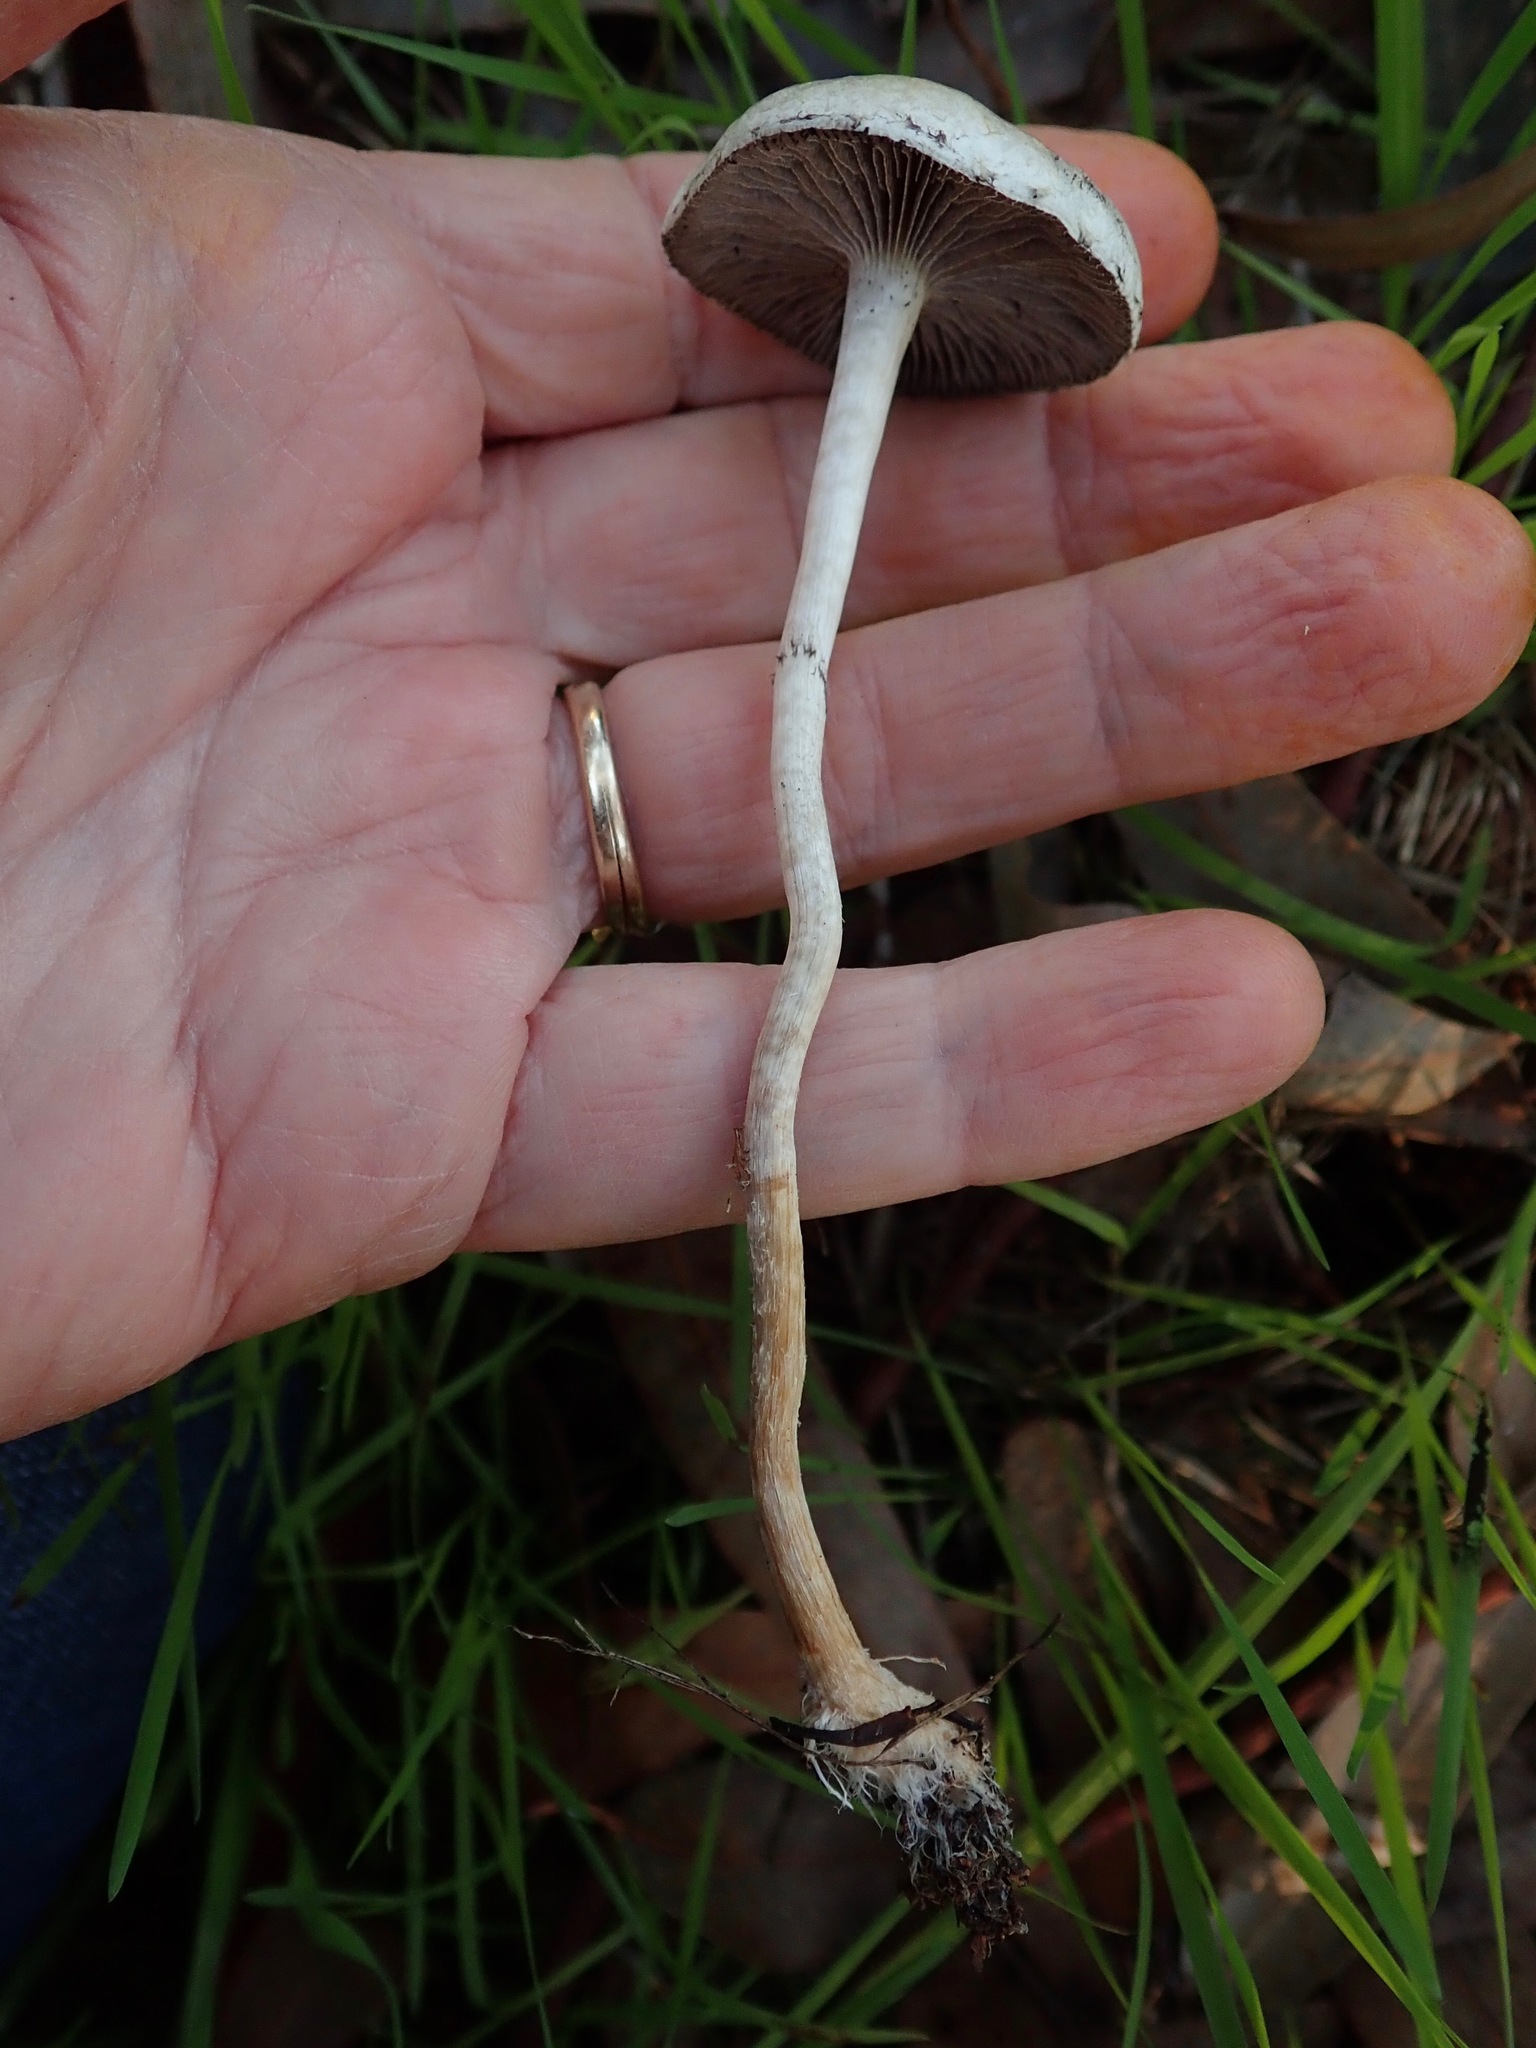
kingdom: Fungi
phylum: Basidiomycota
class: Agaricomycetes
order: Agaricales
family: Strophariaceae
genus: Leratiomyces
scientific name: Leratiomyces percevalii
